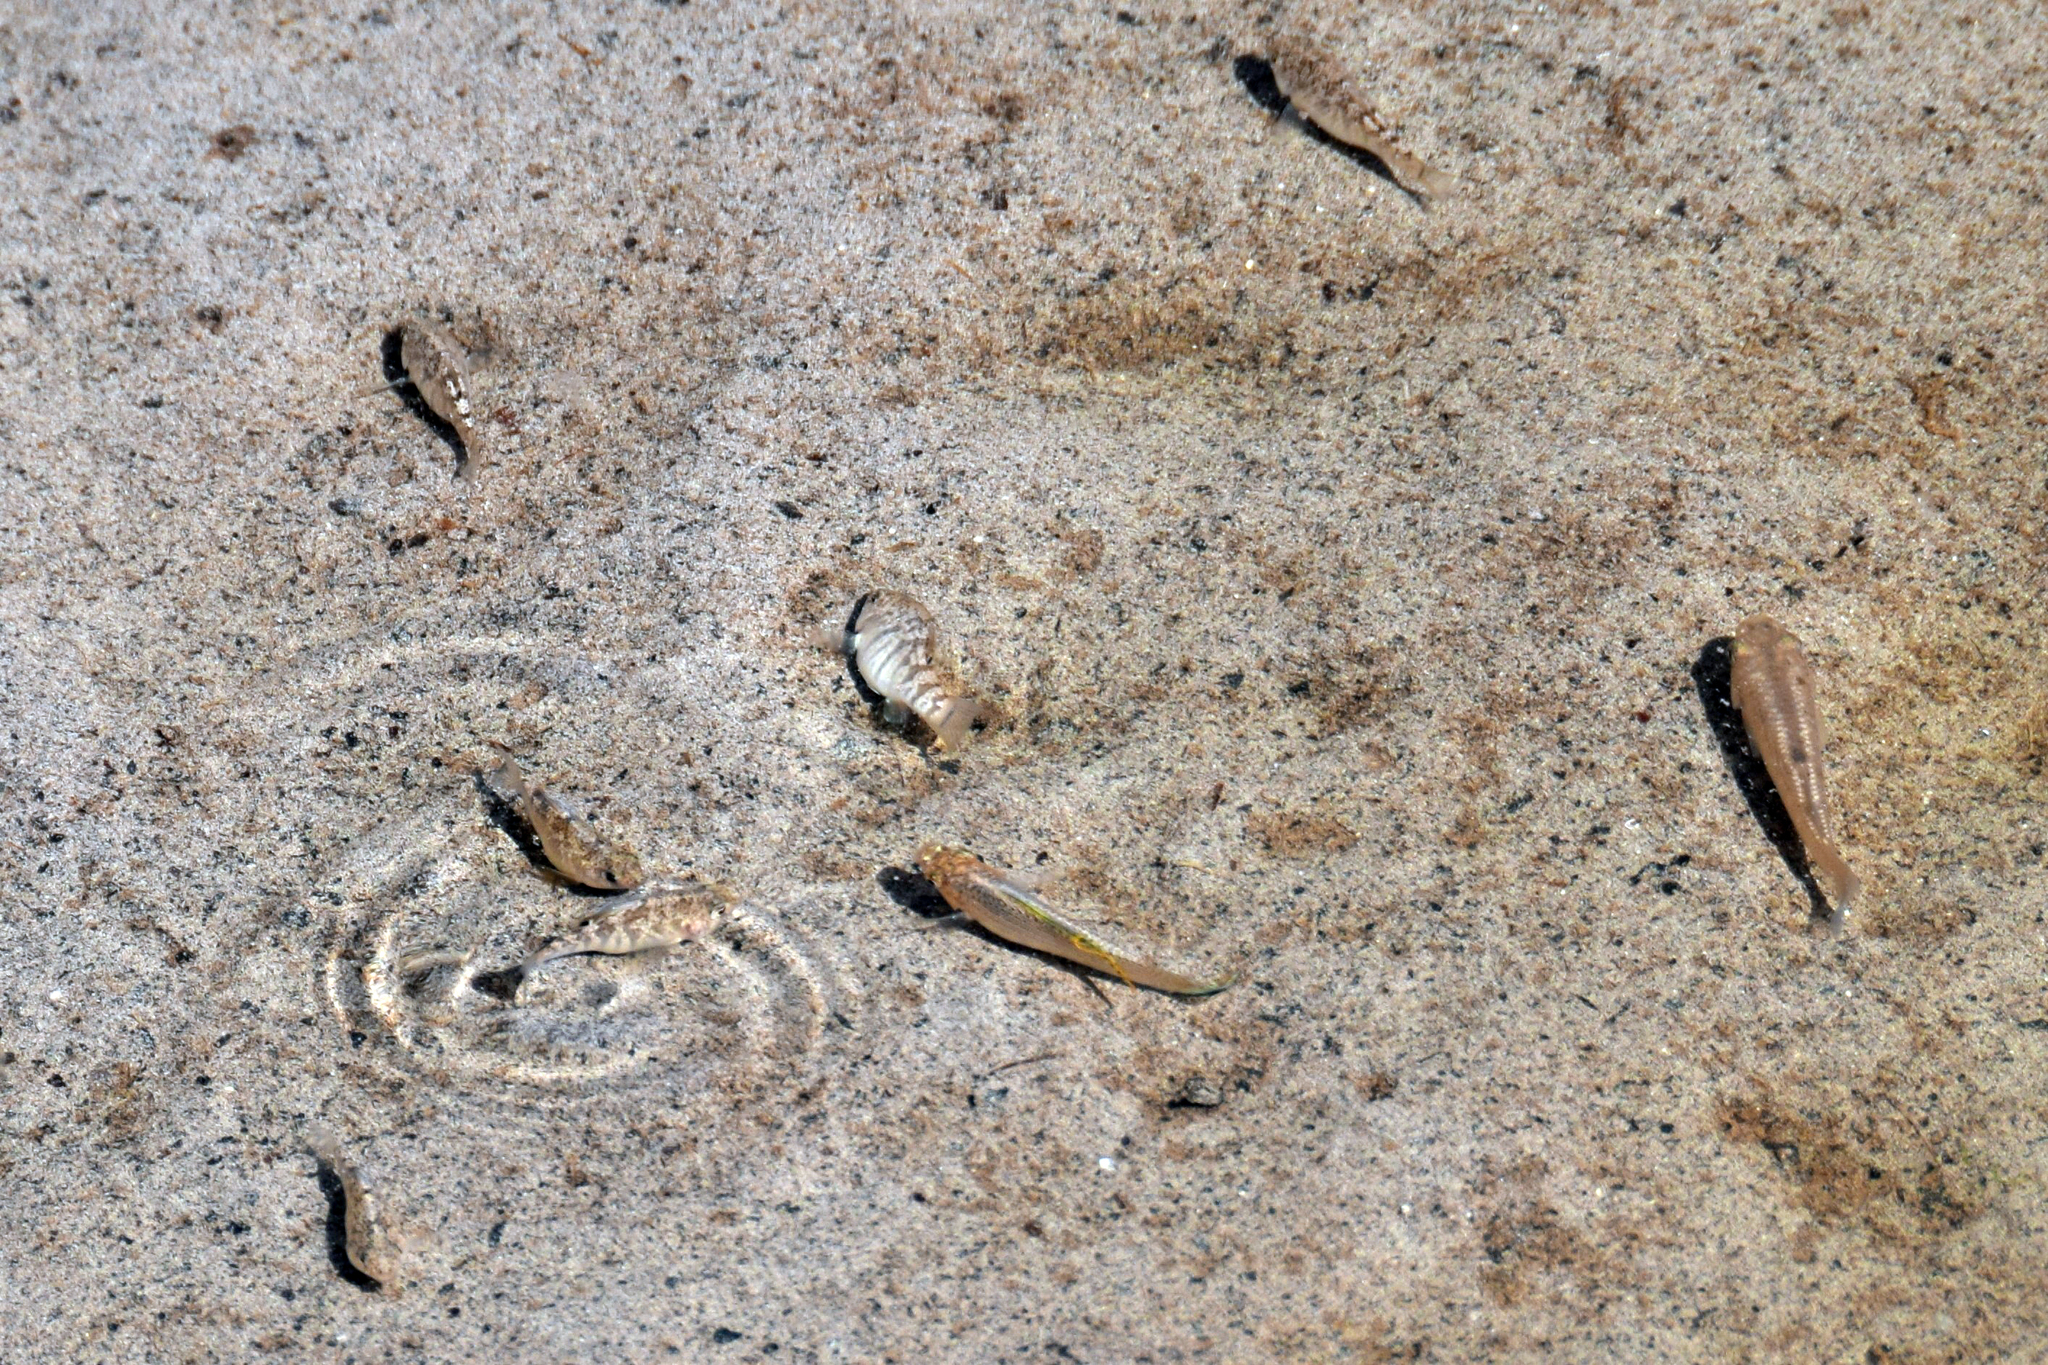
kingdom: Animalia
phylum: Chordata
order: Cyprinodontiformes
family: Cyprinodontidae
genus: Cyprinodon
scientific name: Cyprinodon variegatus
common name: Sheepshead minnow
